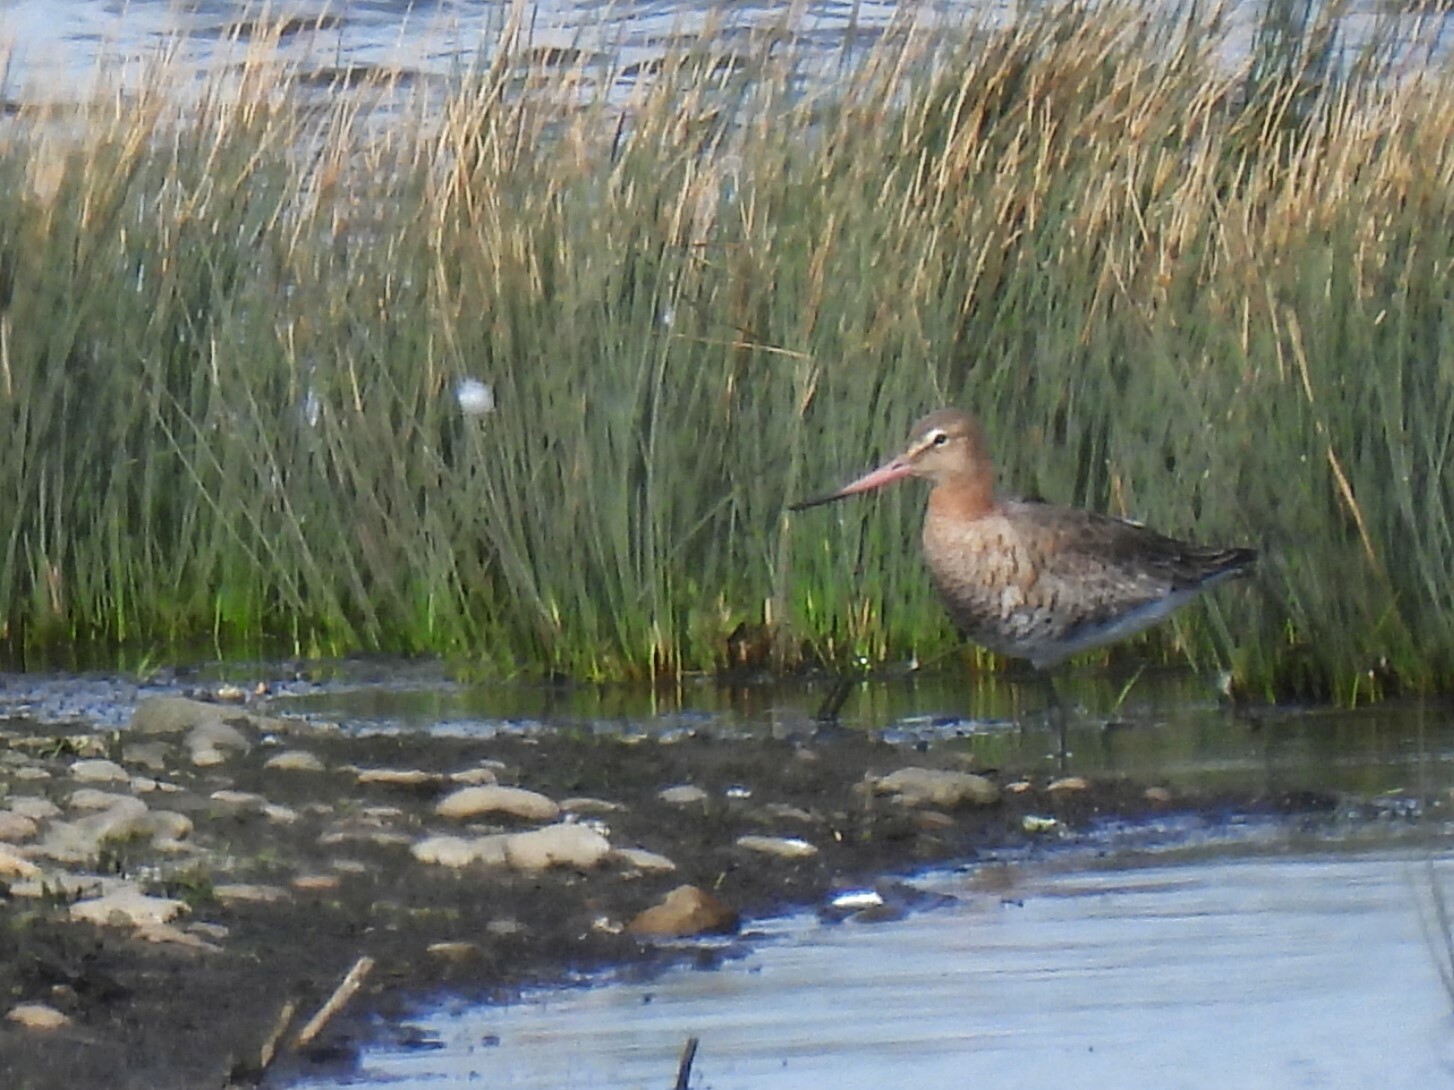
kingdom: Animalia
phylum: Chordata
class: Aves
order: Charadriiformes
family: Scolopacidae
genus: Limosa
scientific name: Limosa limosa
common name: Black-tailed godwit
